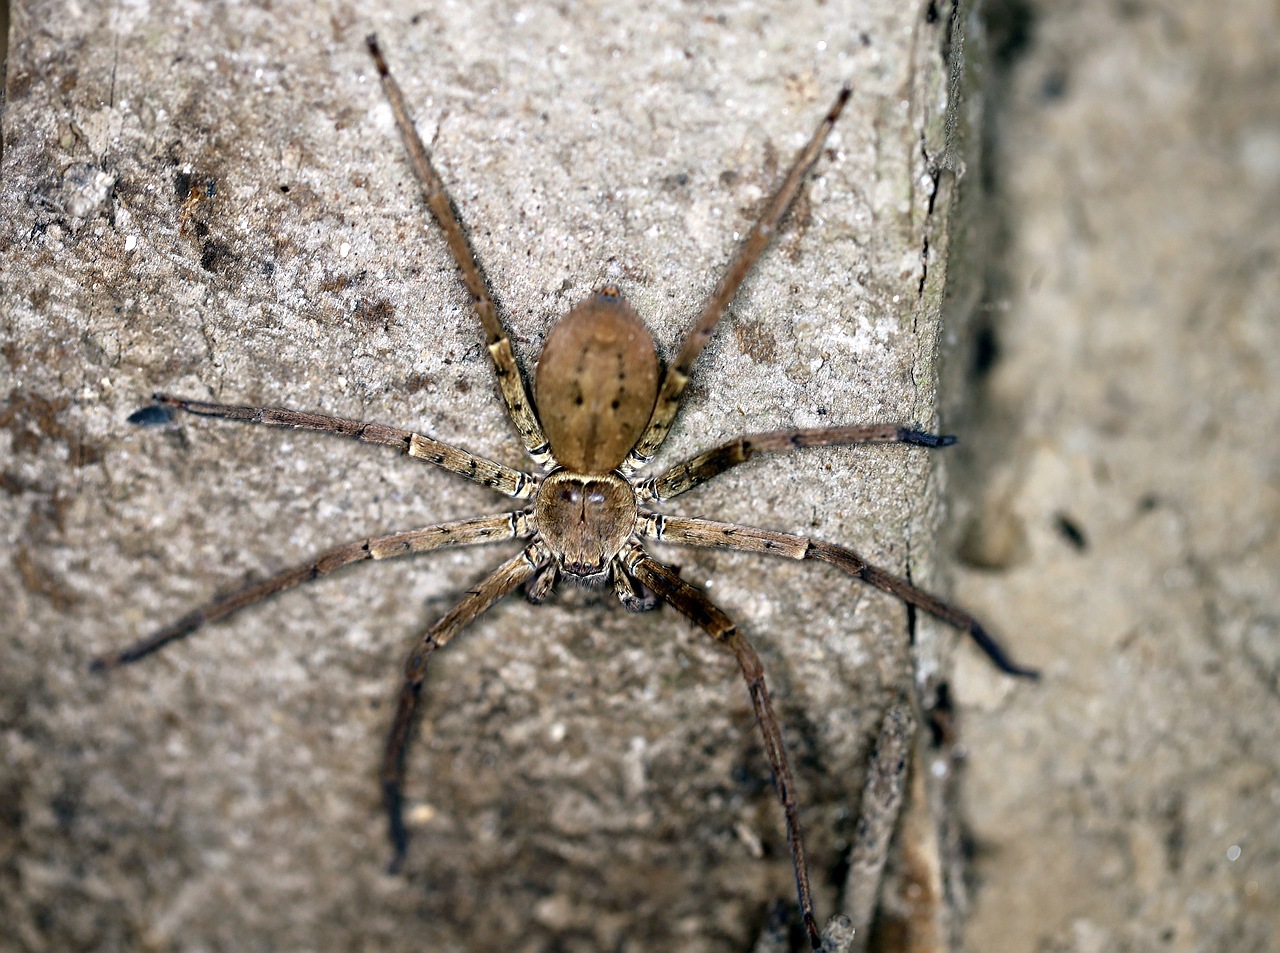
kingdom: Animalia
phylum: Arthropoda
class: Arachnida
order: Araneae
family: Sparassidae
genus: Heteropoda
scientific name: Heteropoda venatoria
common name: Huntsman spider
